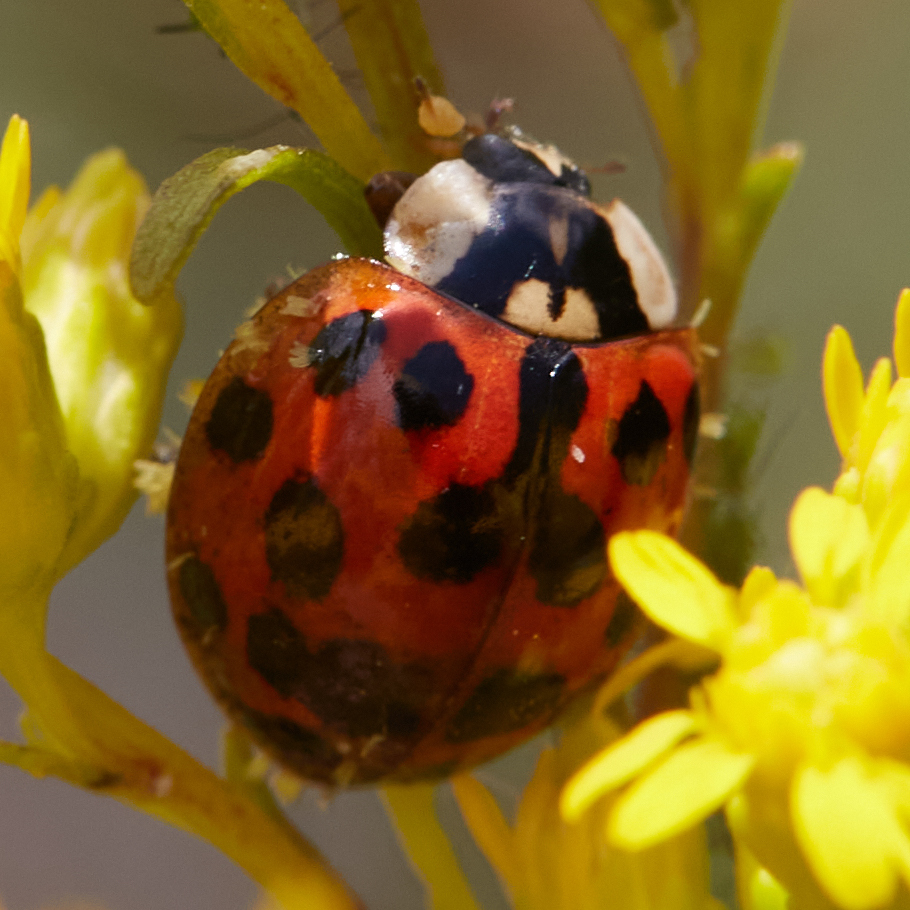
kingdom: Animalia
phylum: Arthropoda
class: Insecta
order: Coleoptera
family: Coccinellidae
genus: Harmonia
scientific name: Harmonia axyridis
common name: Harlequin ladybird
